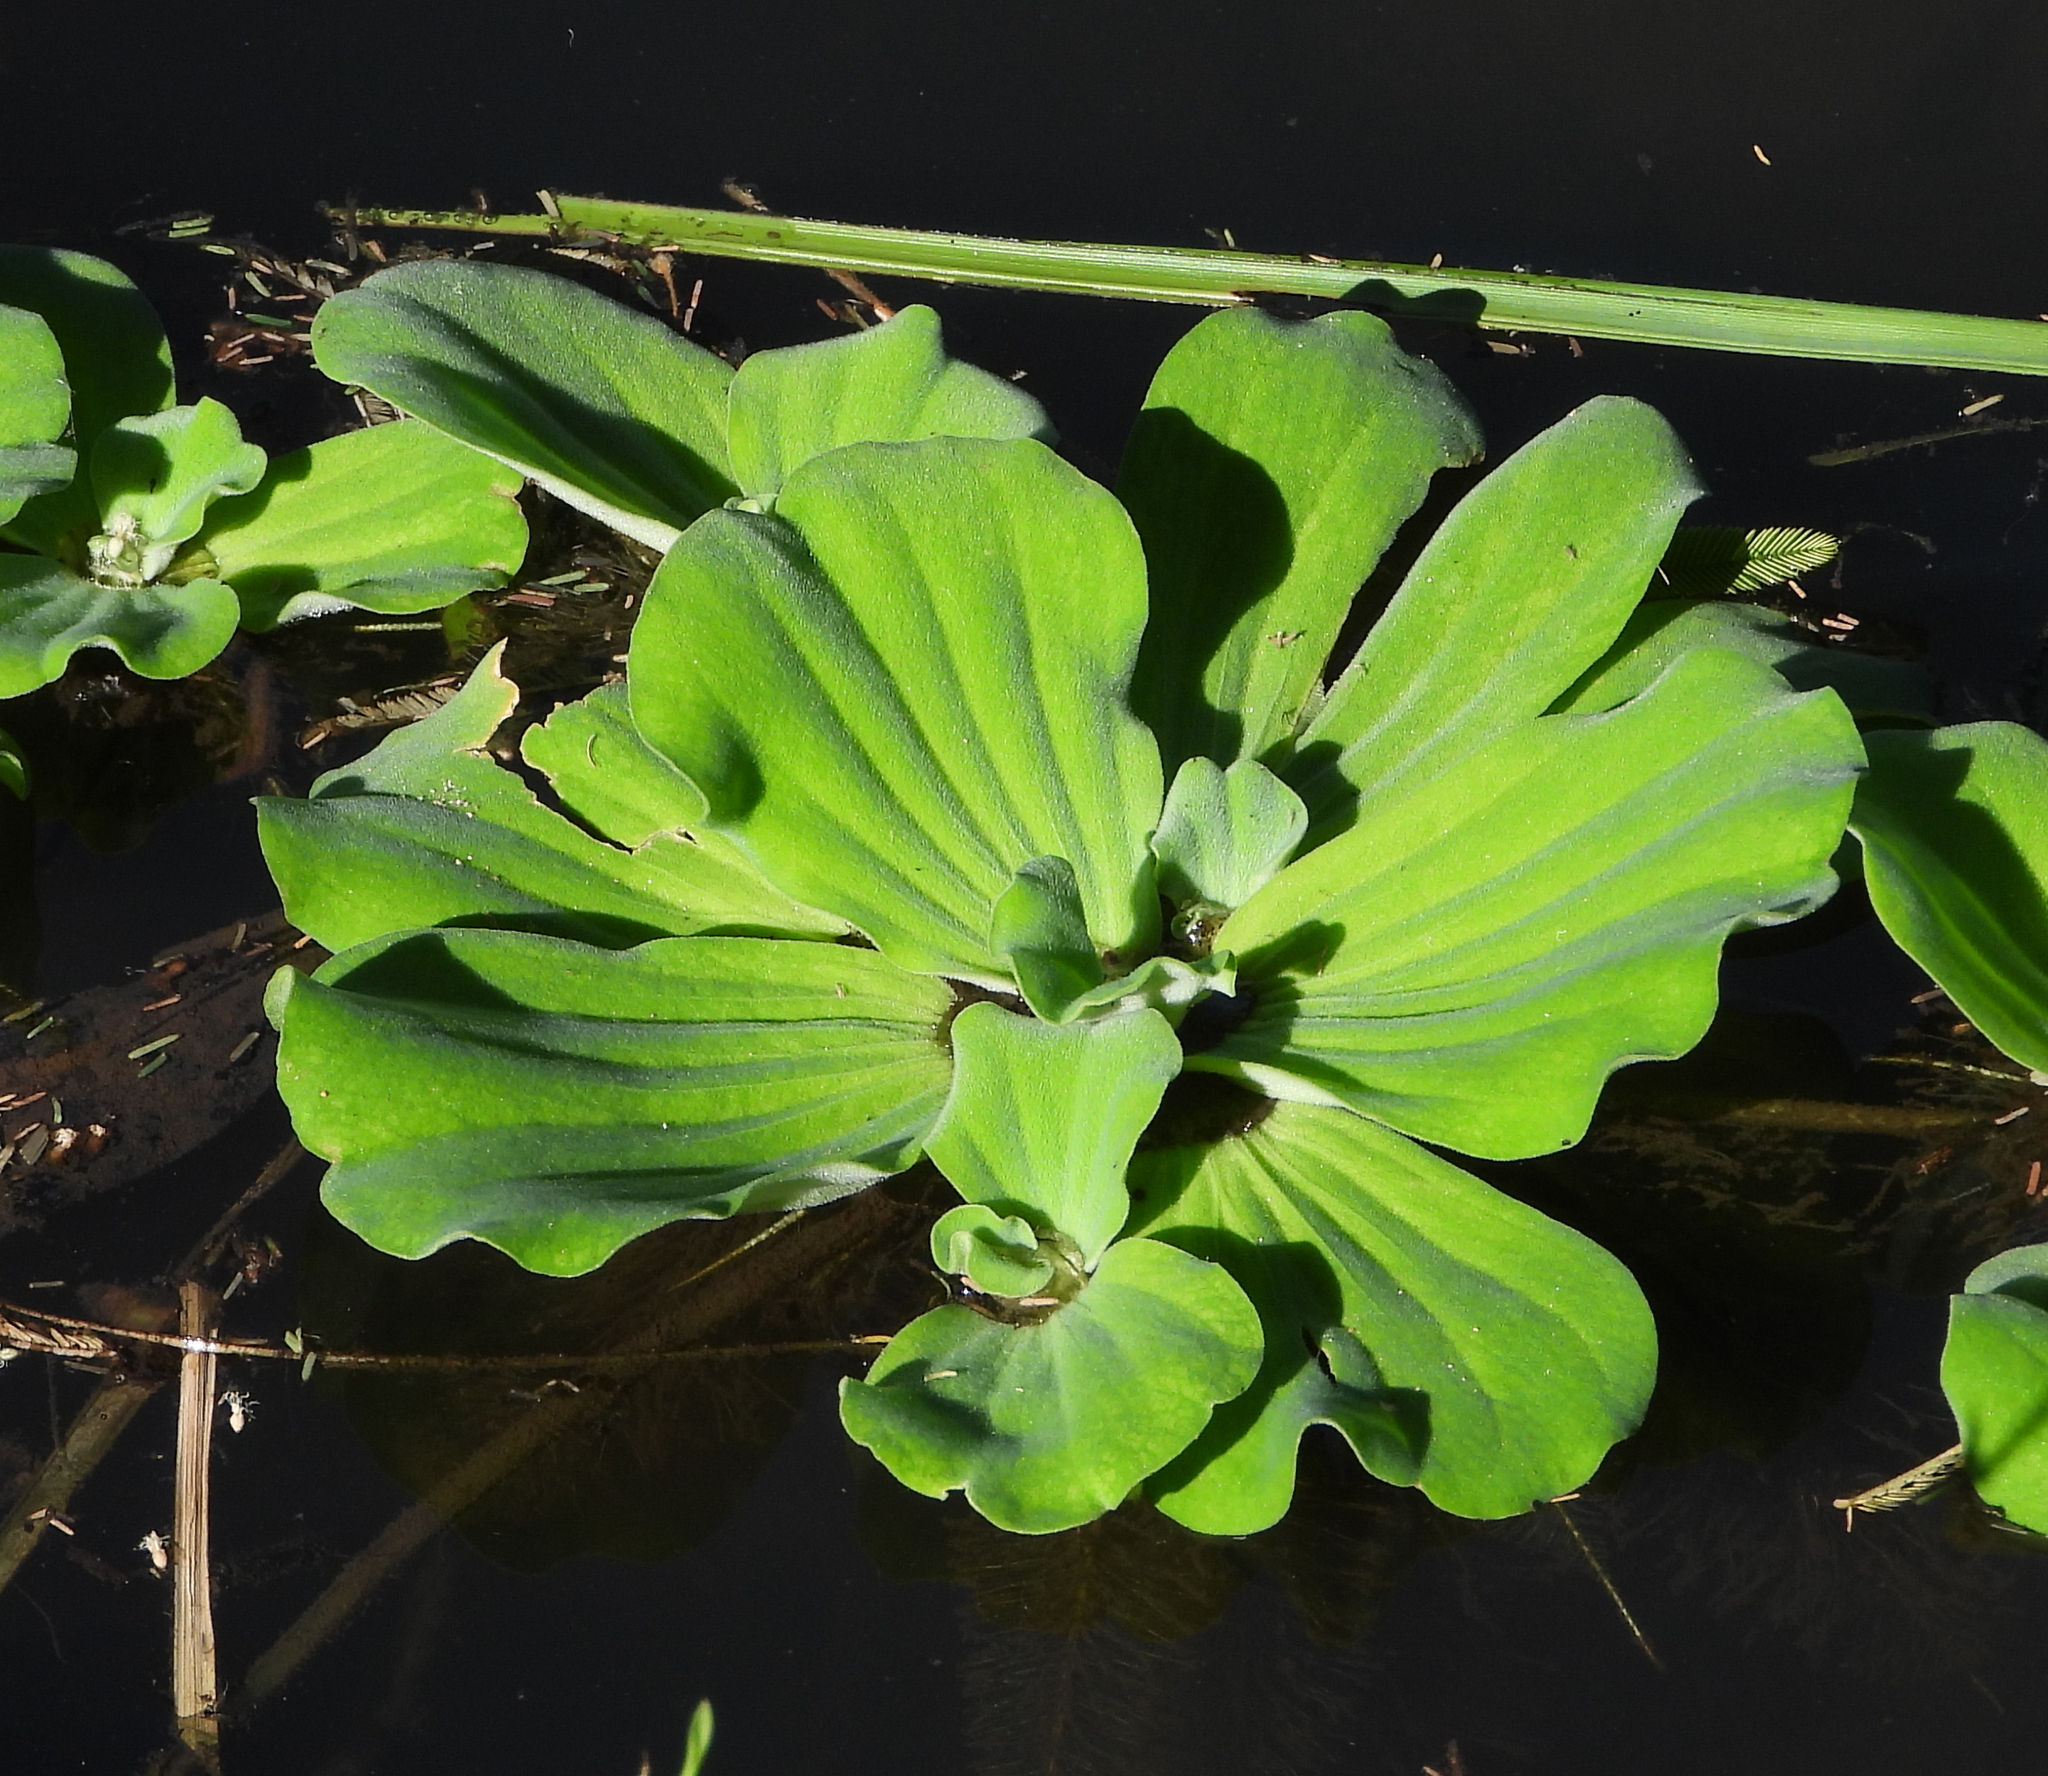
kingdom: Plantae
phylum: Tracheophyta
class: Liliopsida
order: Alismatales
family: Araceae
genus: Pistia
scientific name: Pistia stratiotes
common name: Water lettuce
